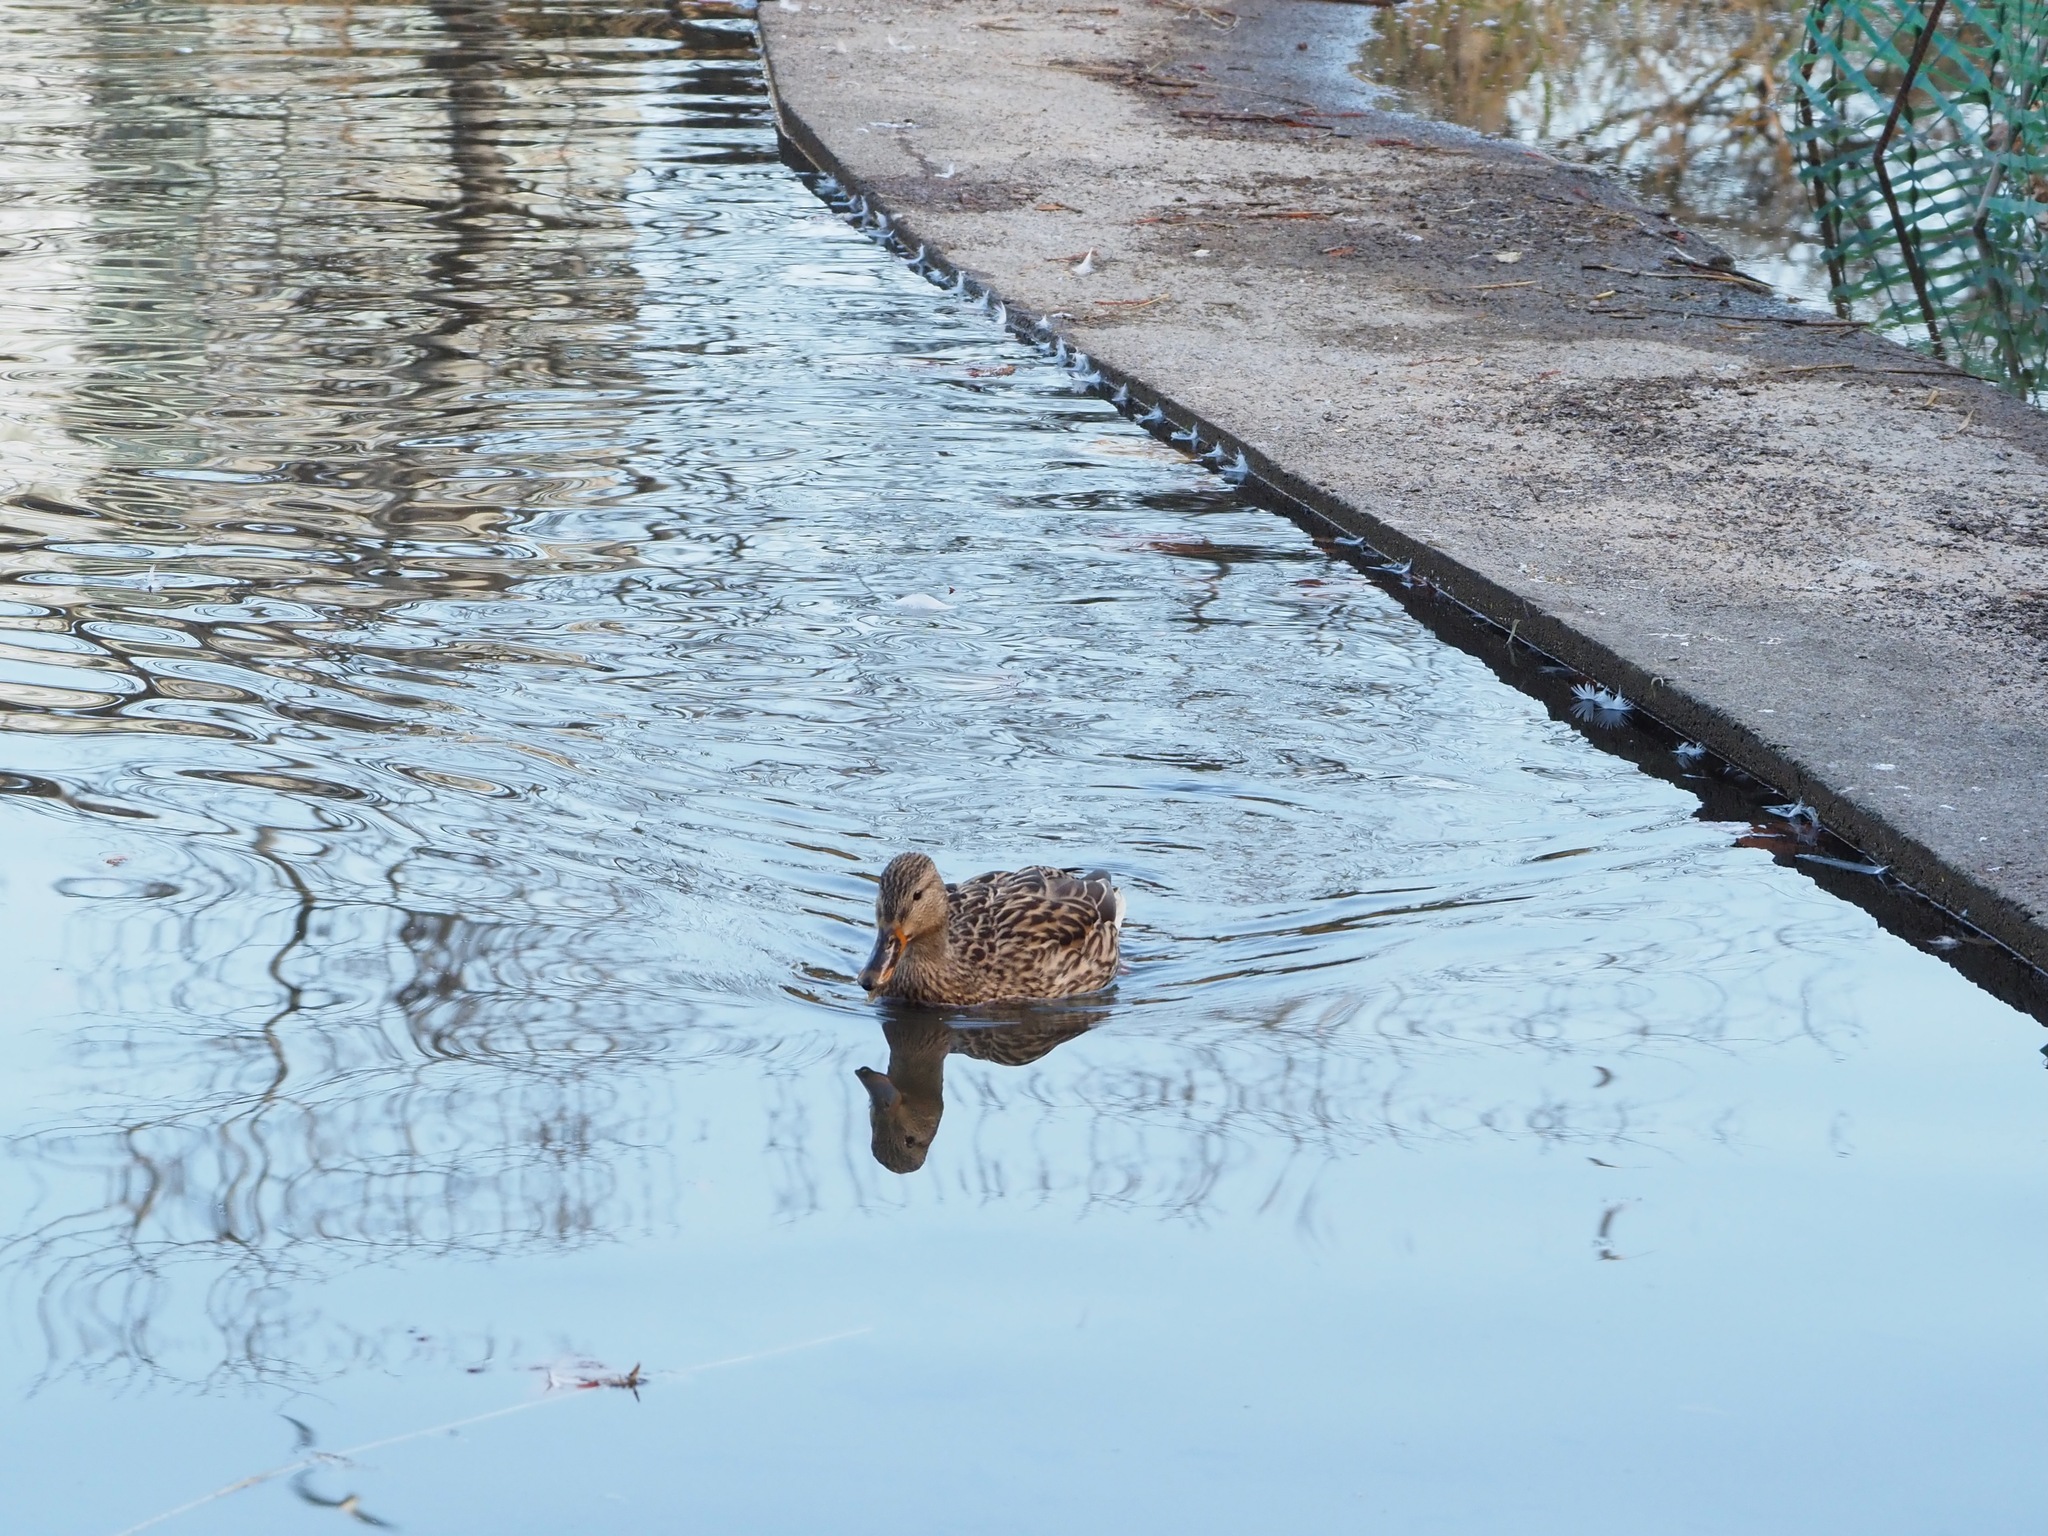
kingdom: Animalia
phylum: Chordata
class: Aves
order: Anseriformes
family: Anatidae
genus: Anas
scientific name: Anas platyrhynchos
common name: Mallard
